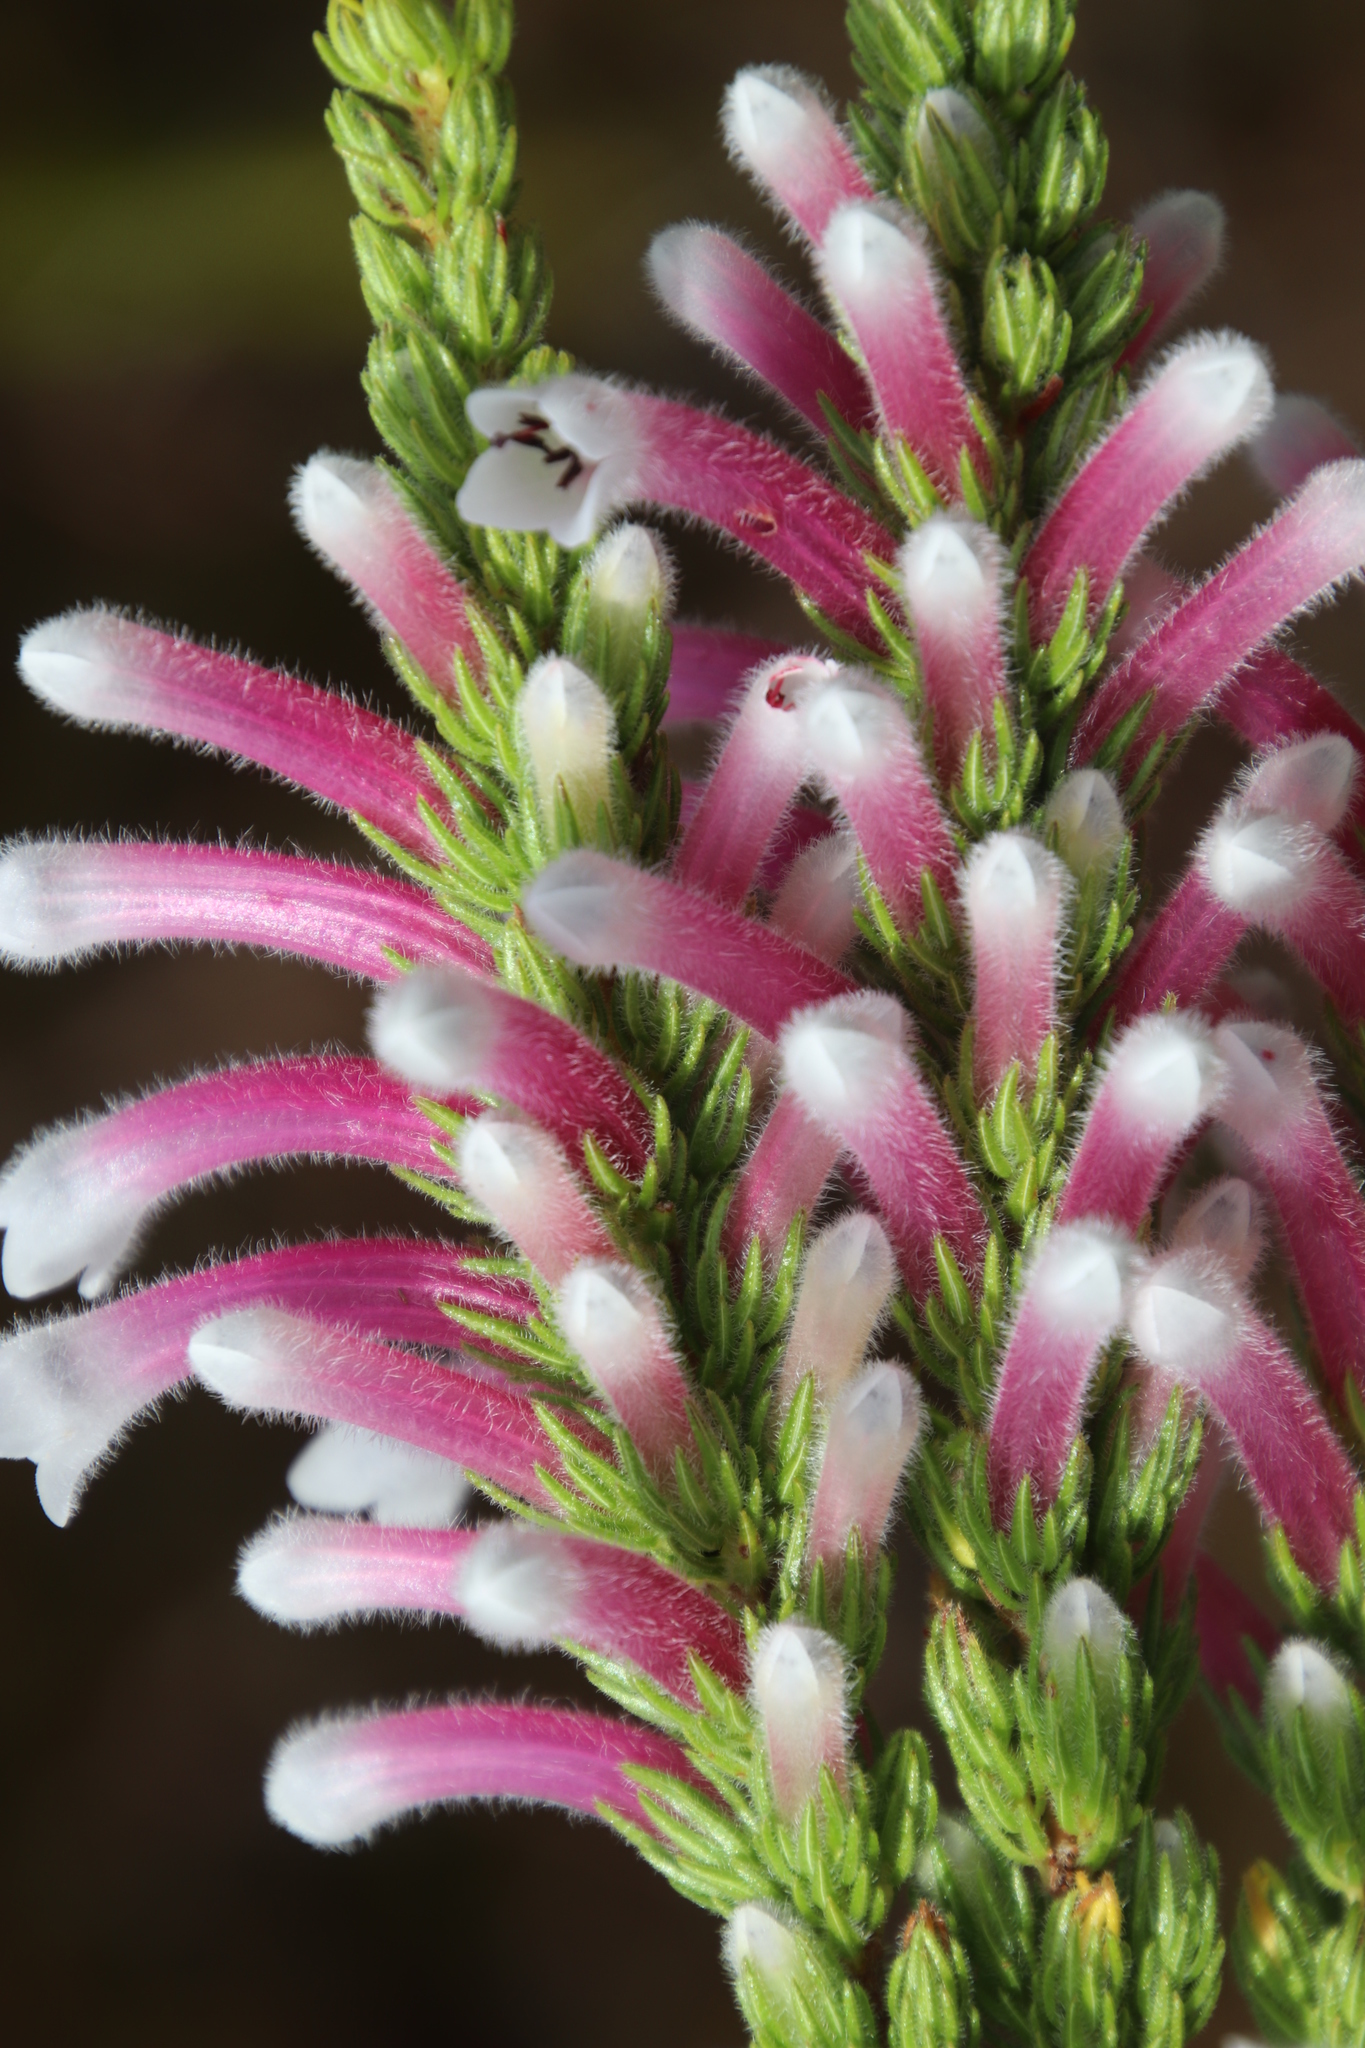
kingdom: Plantae
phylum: Tracheophyta
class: Magnoliopsida
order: Ericales
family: Ericaceae
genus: Erica
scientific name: Erica macowanii
